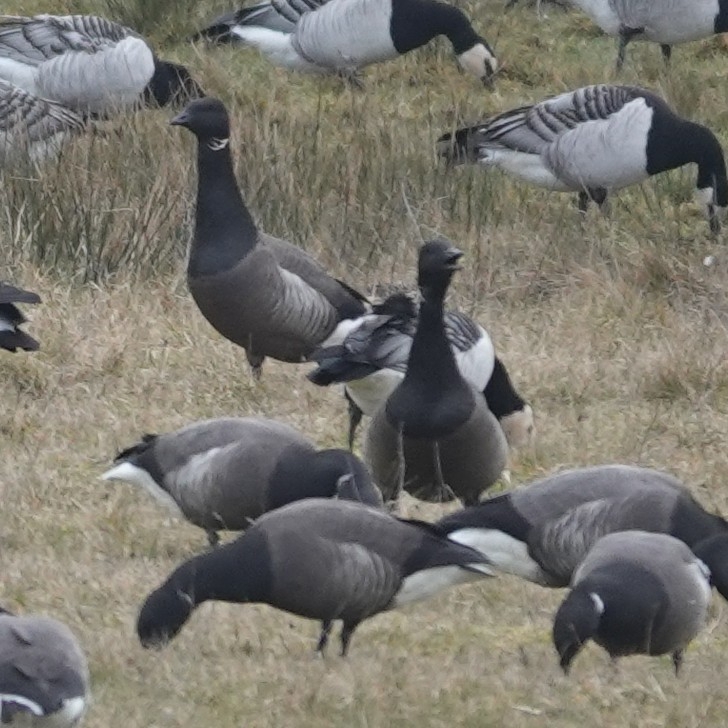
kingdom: Animalia
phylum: Chordata
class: Aves
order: Anseriformes
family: Anatidae
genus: Branta
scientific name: Branta bernicla
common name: Brant goose
